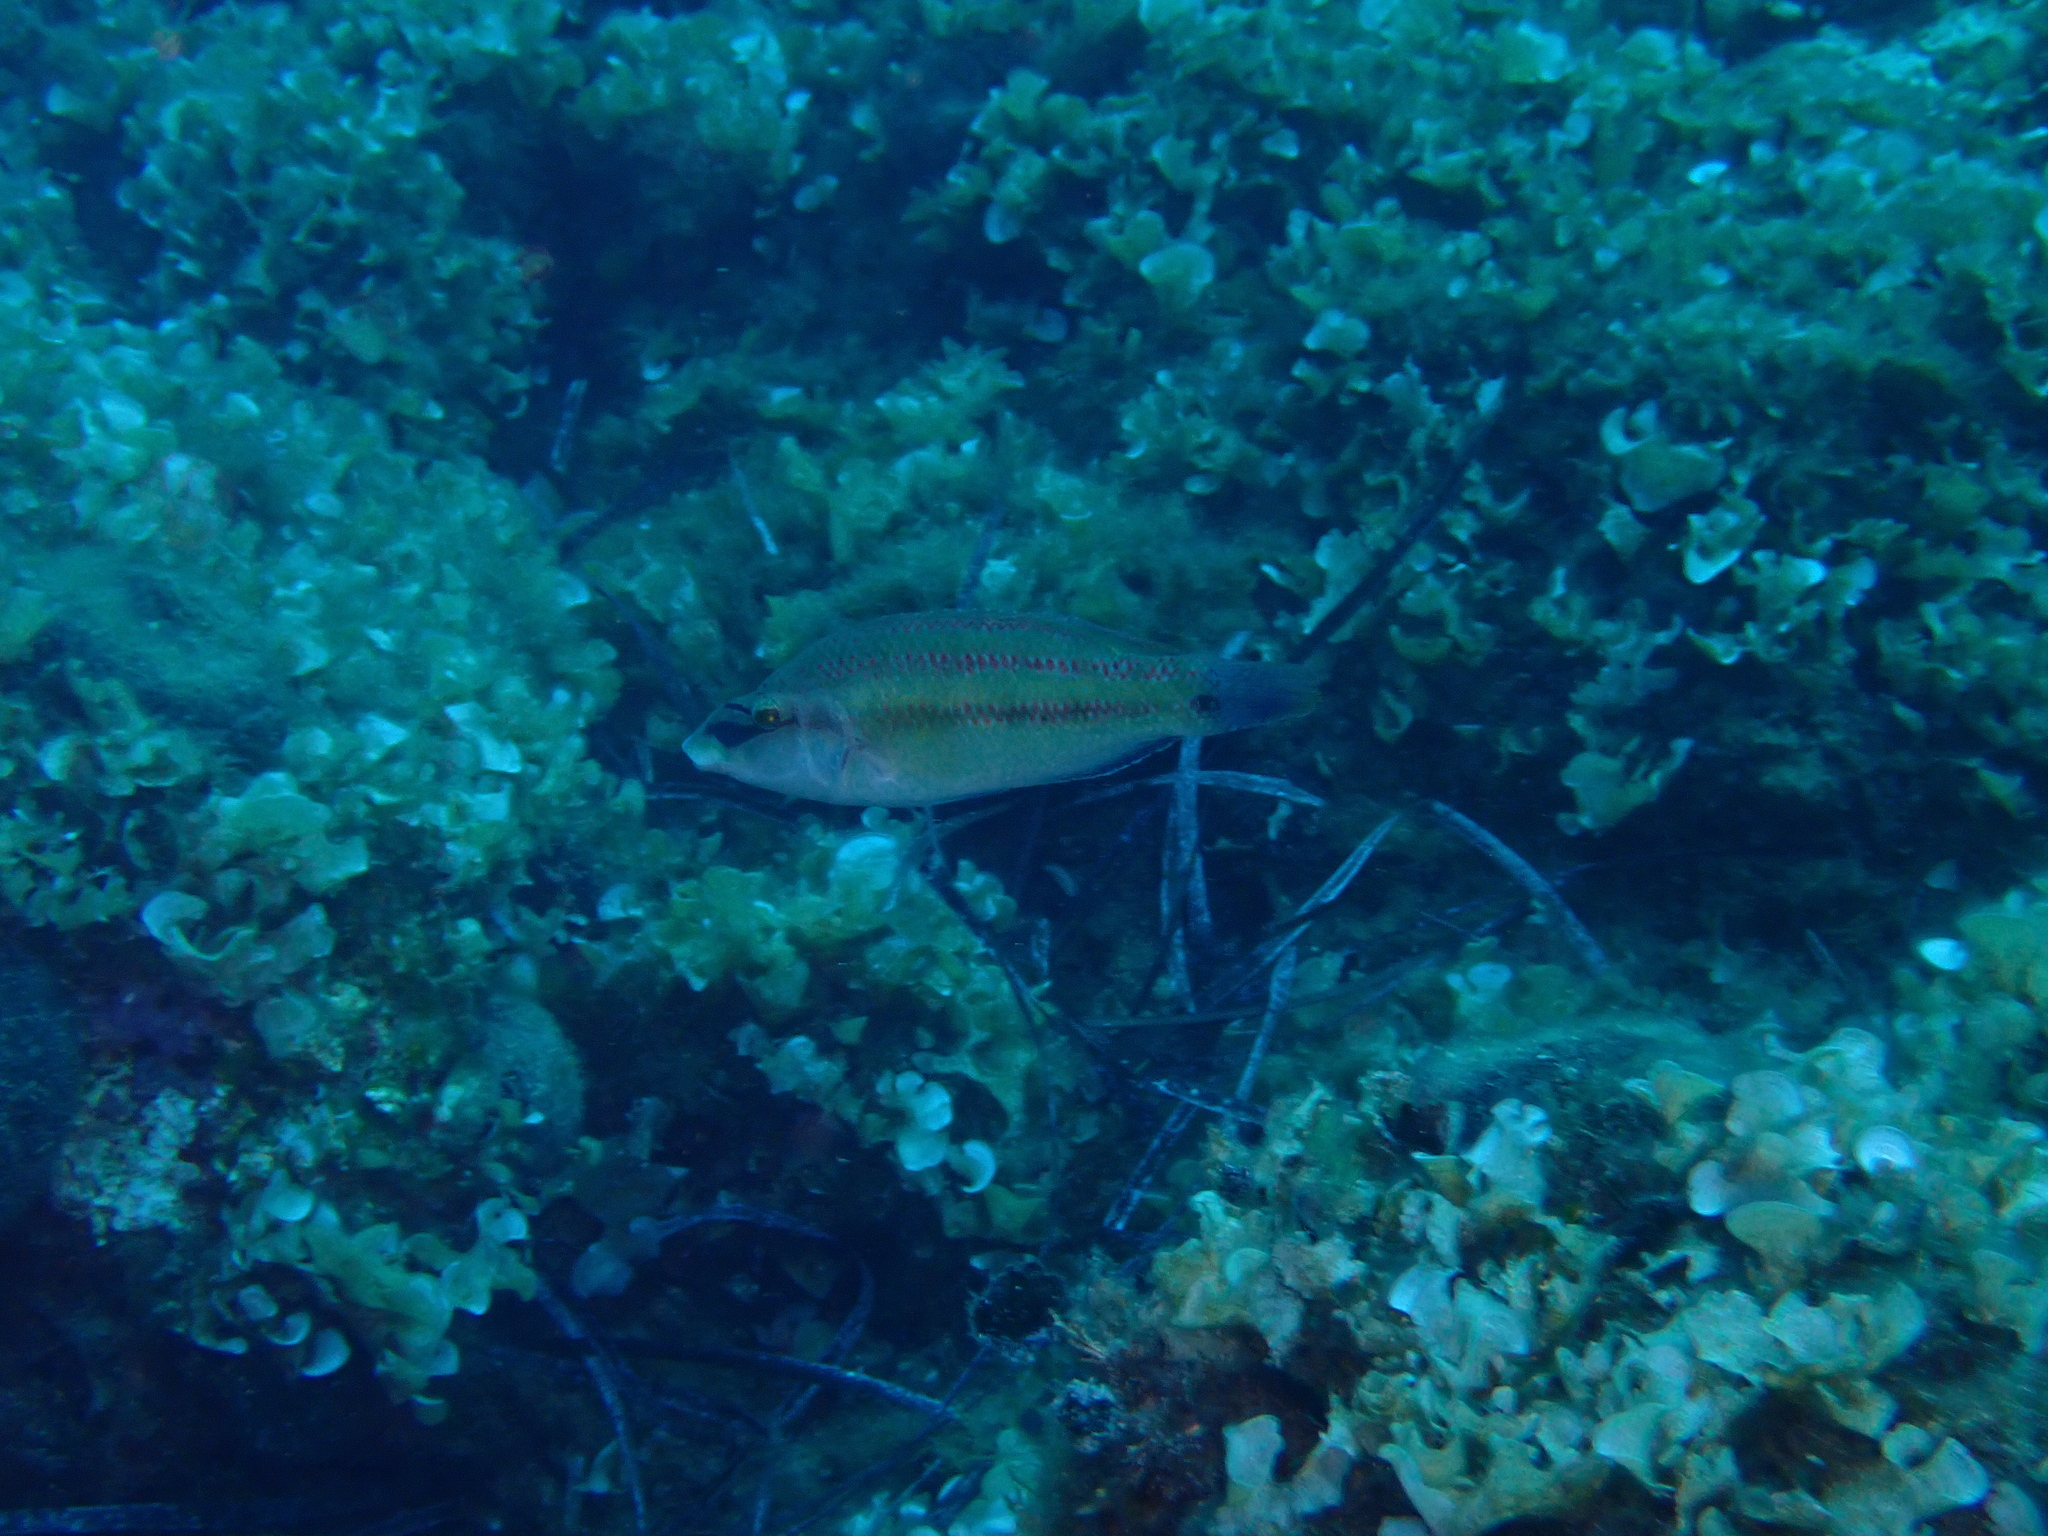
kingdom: Animalia
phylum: Chordata
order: Perciformes
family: Labridae
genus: Symphodus
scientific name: Symphodus tinca
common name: Peacock wrasse
